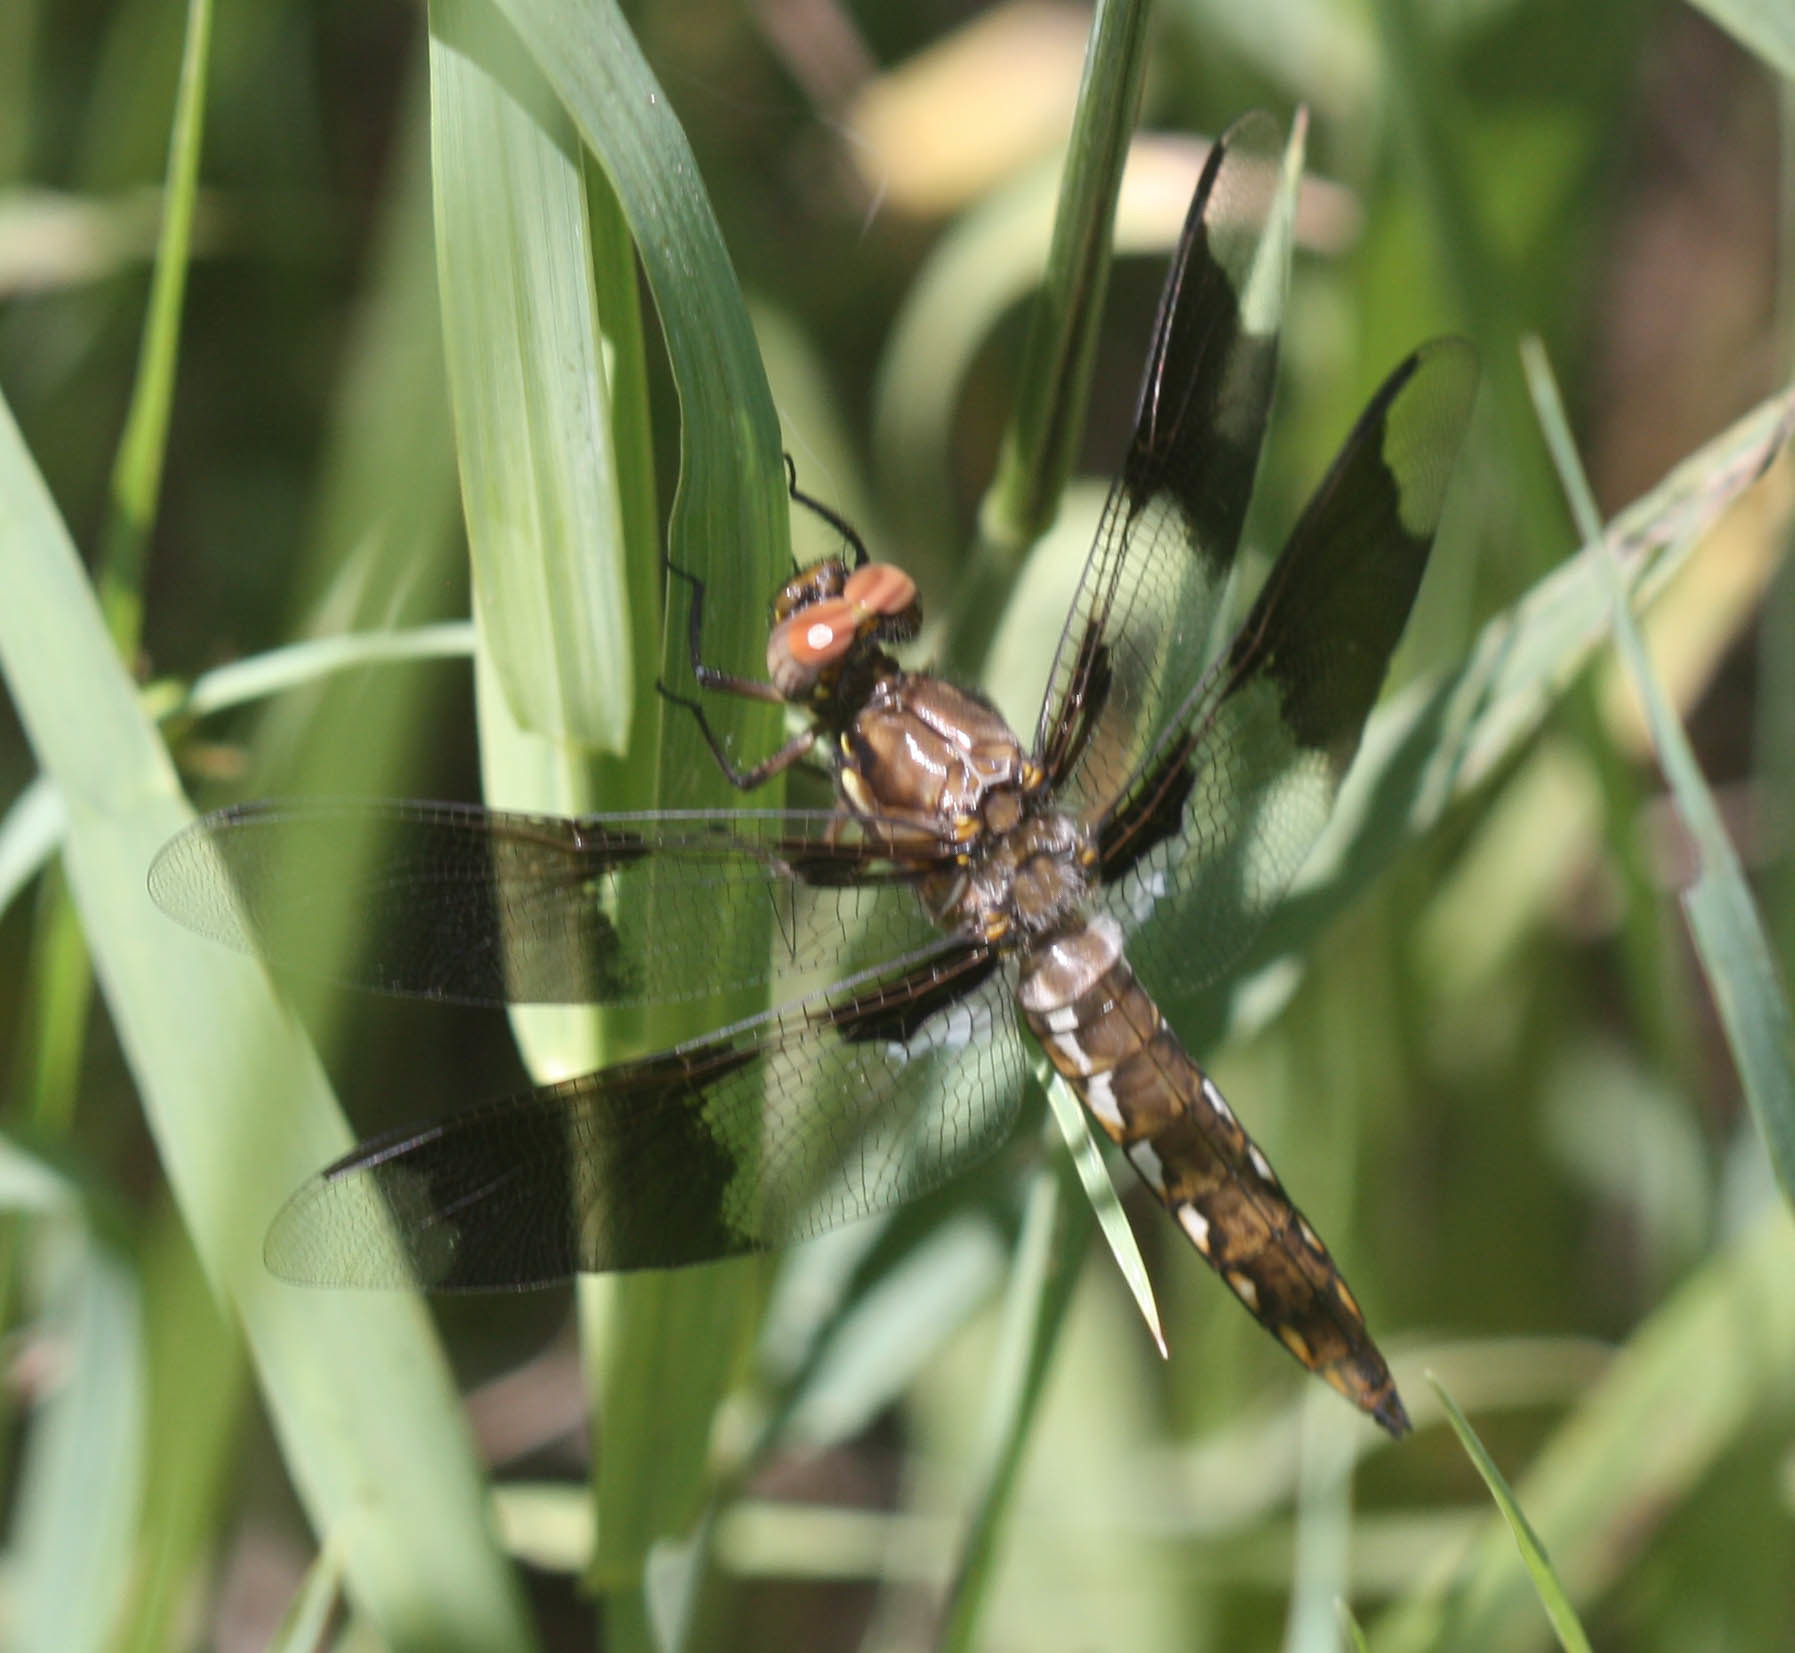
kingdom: Animalia
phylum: Arthropoda
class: Insecta
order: Odonata
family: Libellulidae
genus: Plathemis
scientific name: Plathemis lydia
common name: Common whitetail
